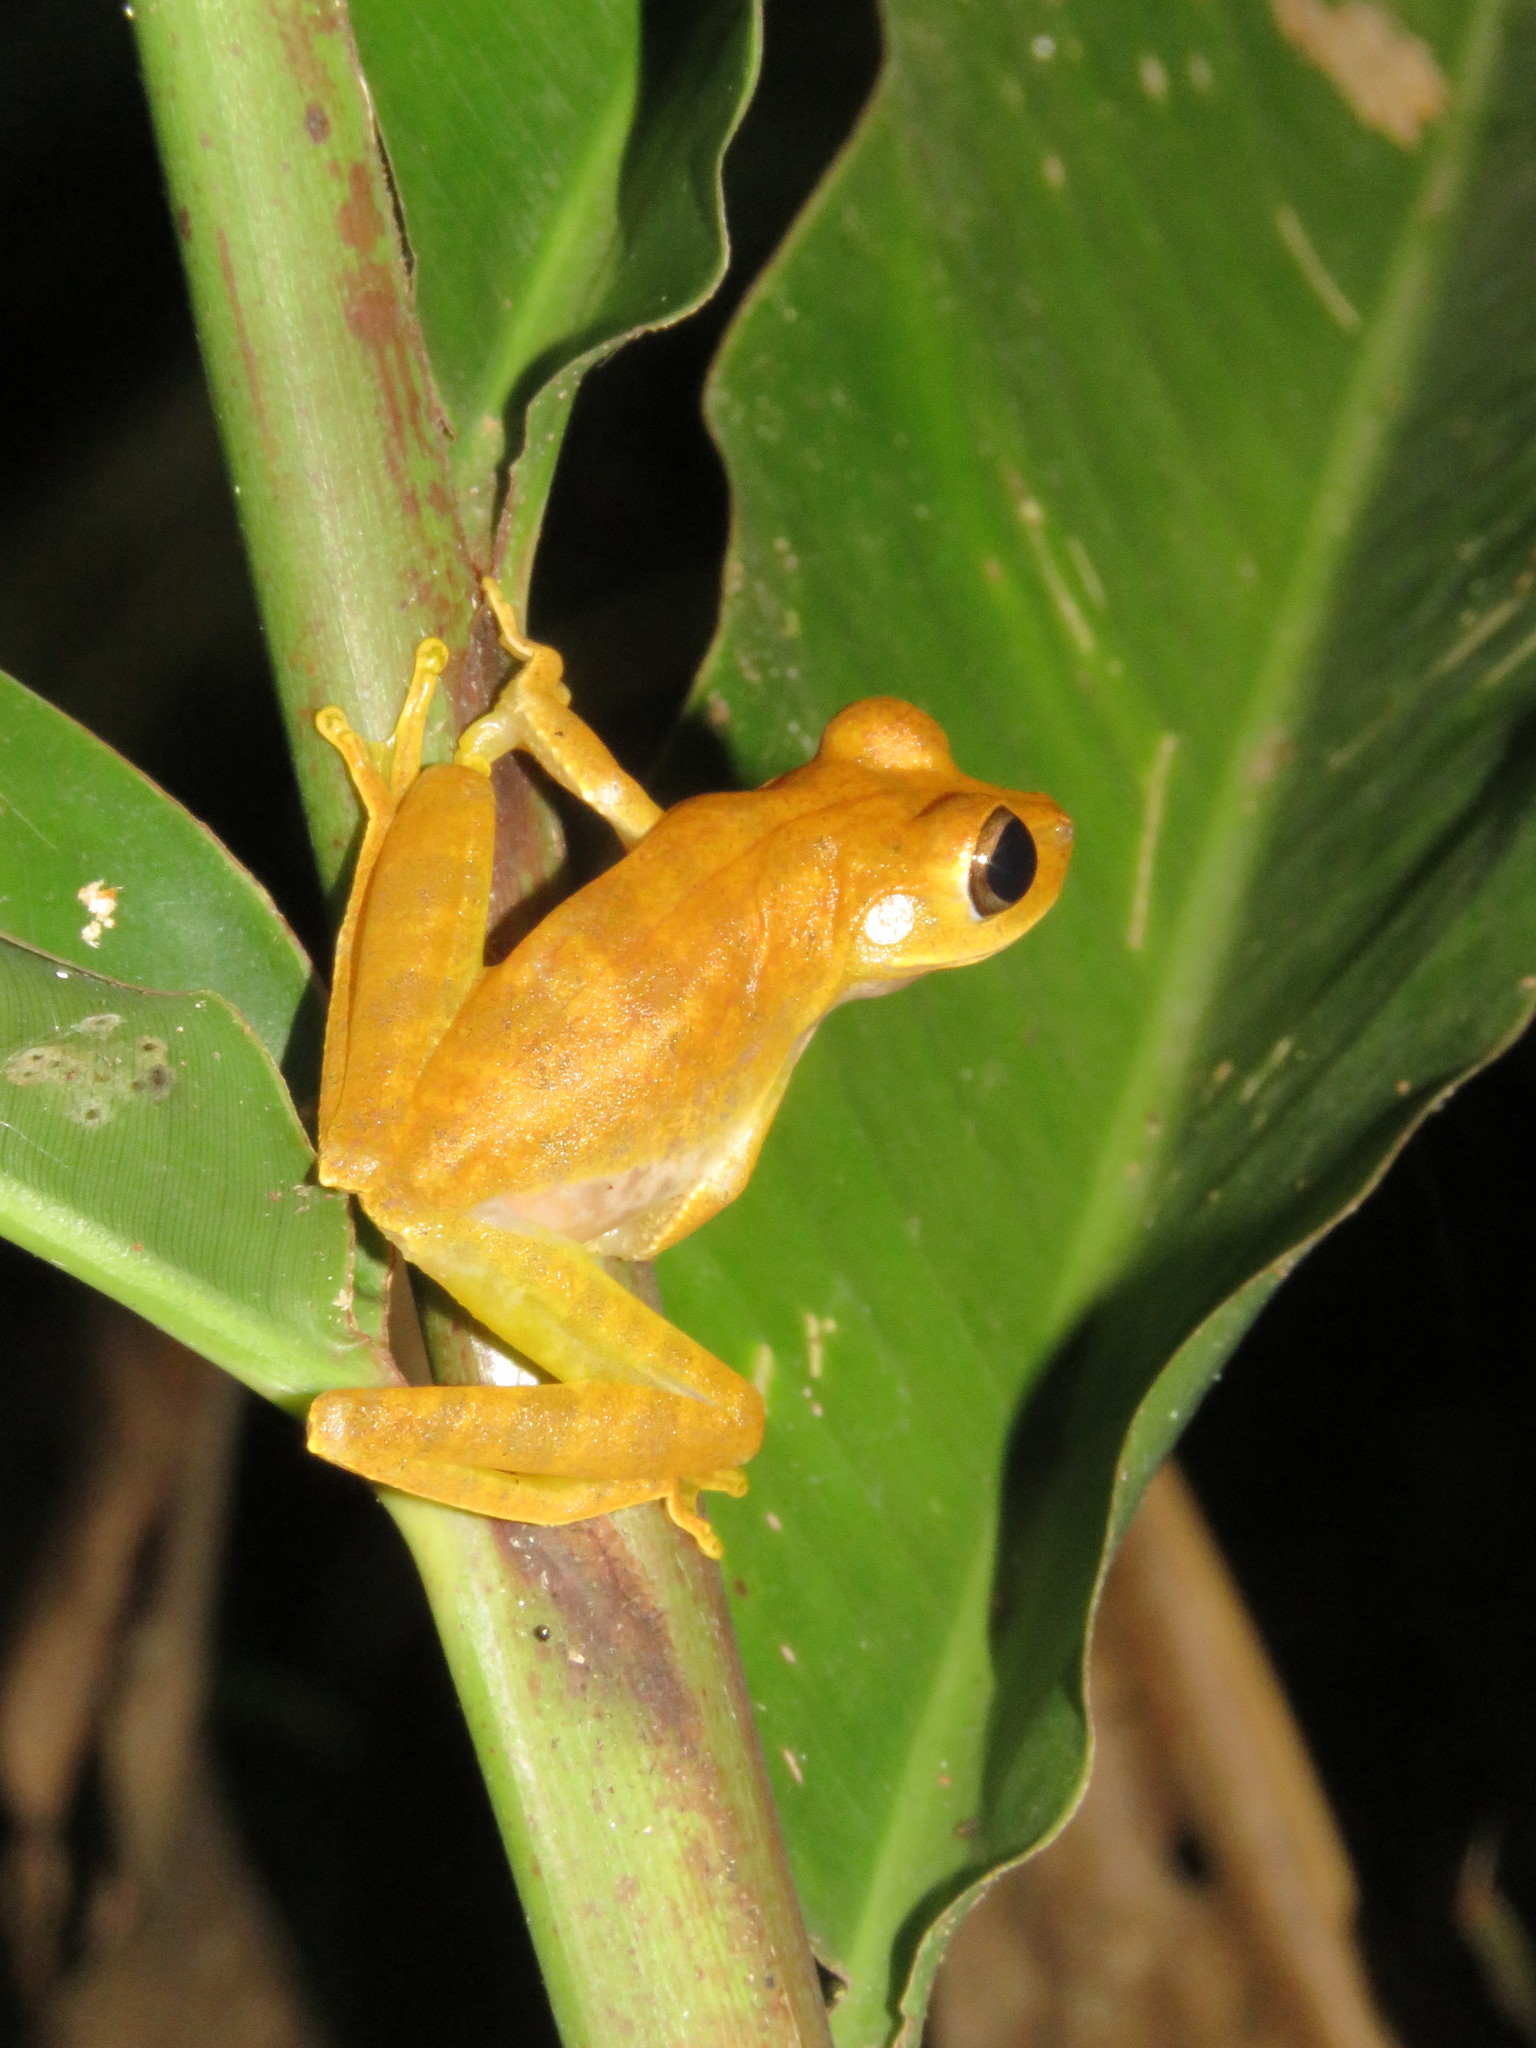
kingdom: Animalia
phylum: Chordata
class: Amphibia
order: Anura
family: Hylidae
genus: Boana
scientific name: Boana steinbachi
